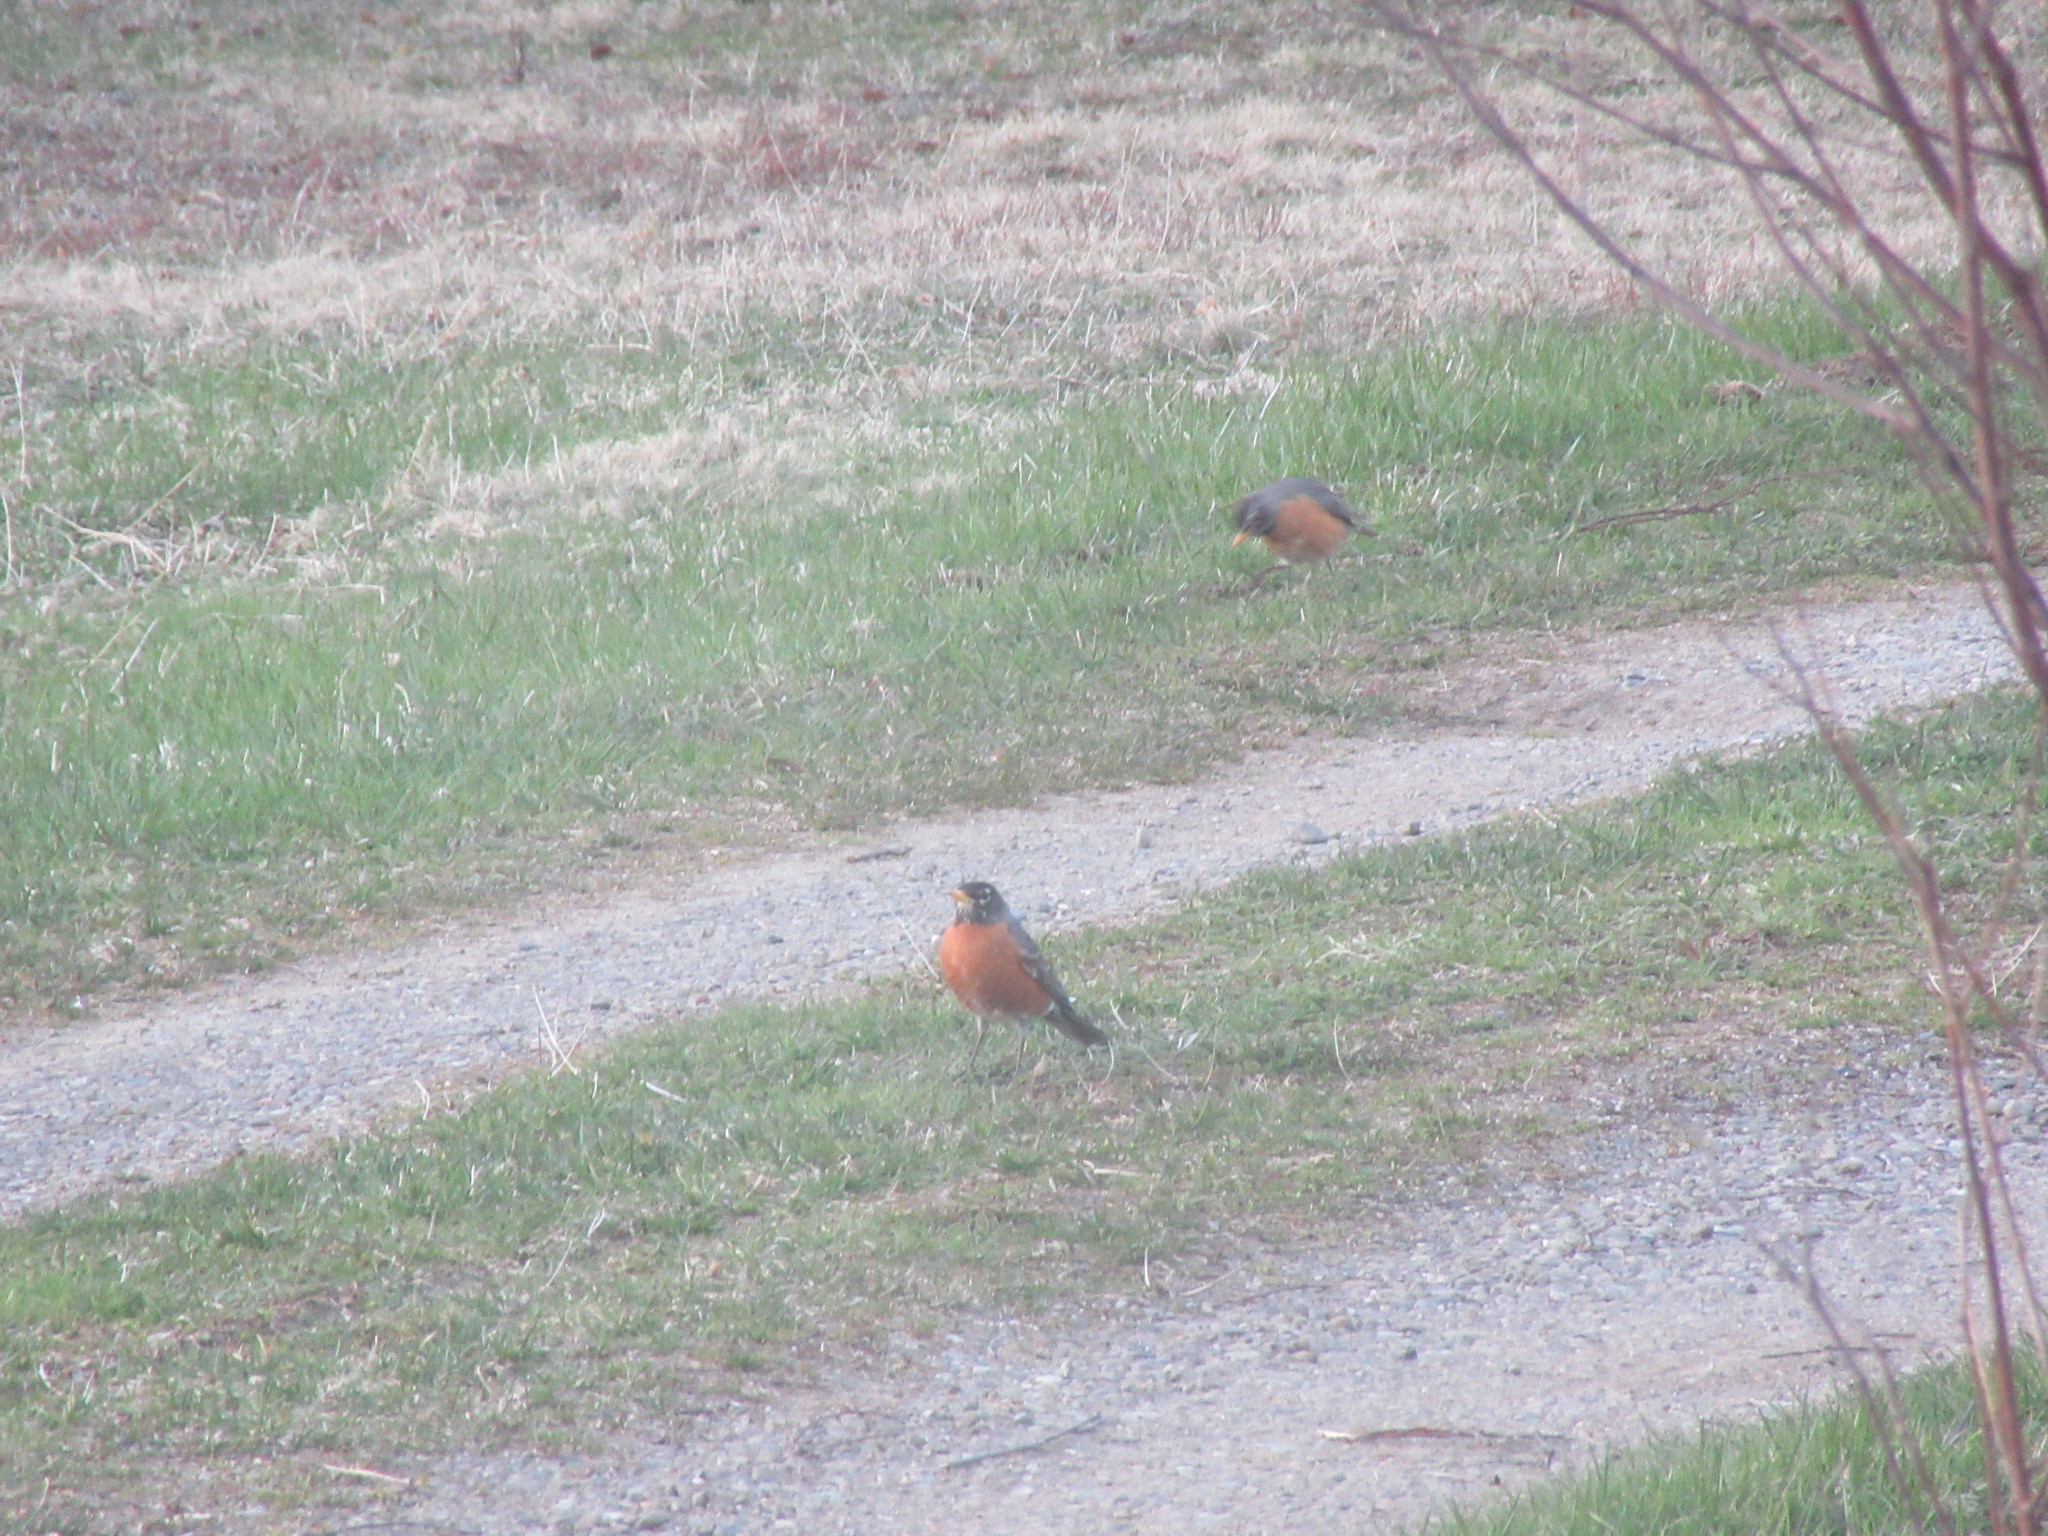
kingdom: Animalia
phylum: Chordata
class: Aves
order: Passeriformes
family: Turdidae
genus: Turdus
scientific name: Turdus migratorius
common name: American robin
